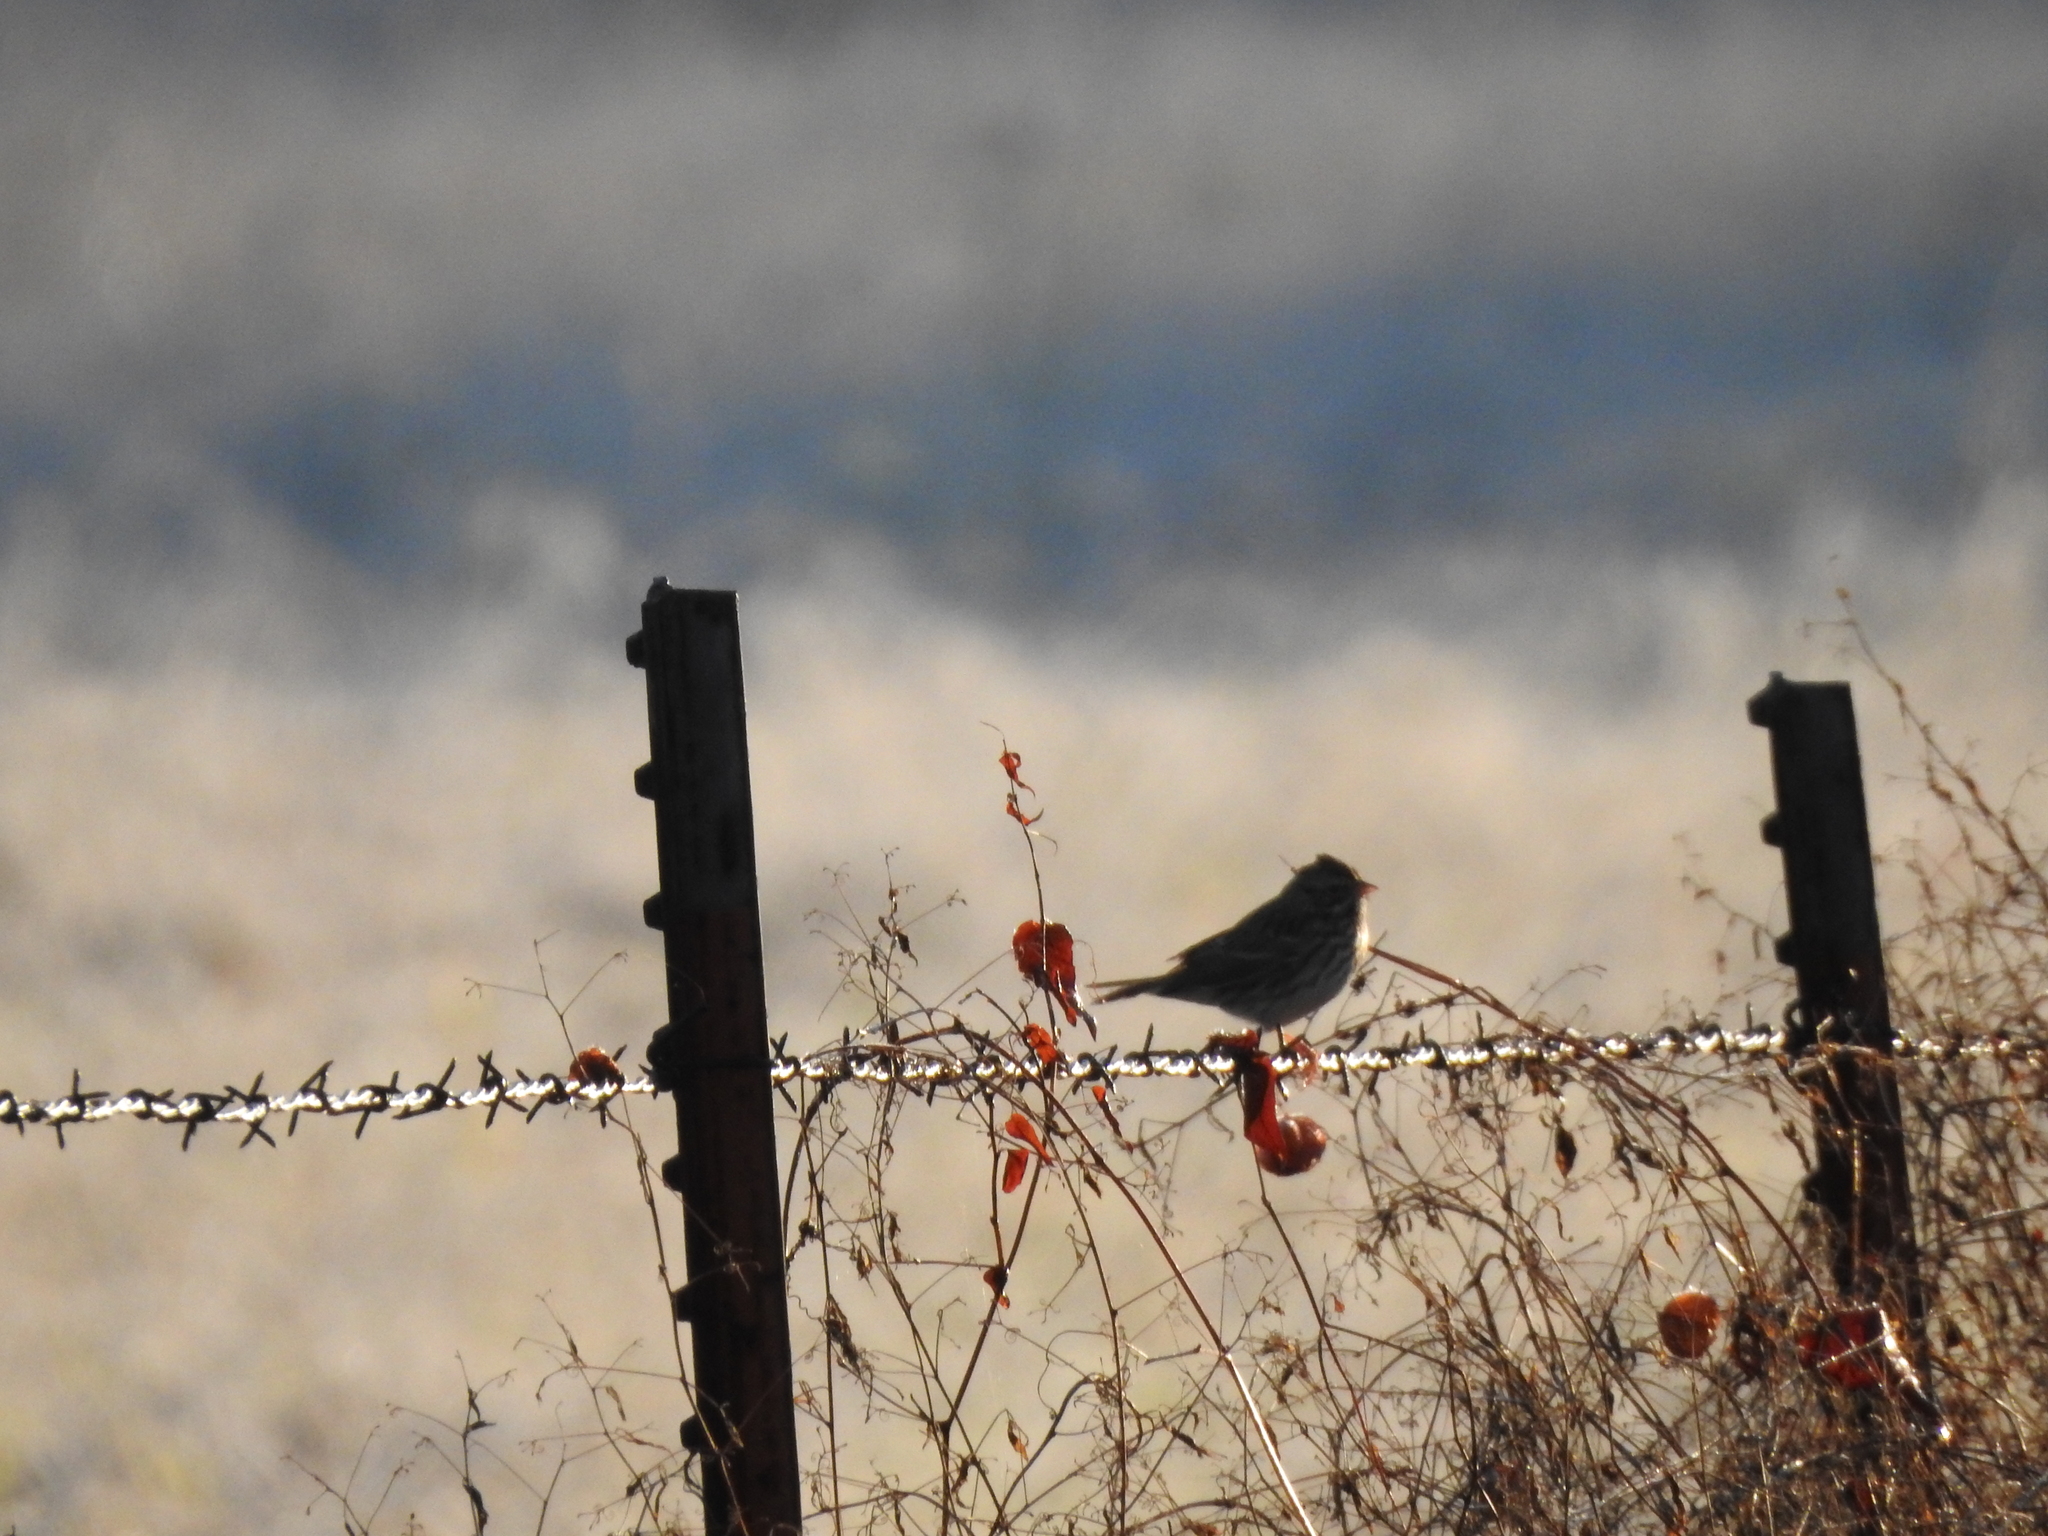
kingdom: Animalia
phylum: Chordata
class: Aves
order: Passeriformes
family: Passerellidae
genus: Passerculus
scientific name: Passerculus sandwichensis
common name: Savannah sparrow
